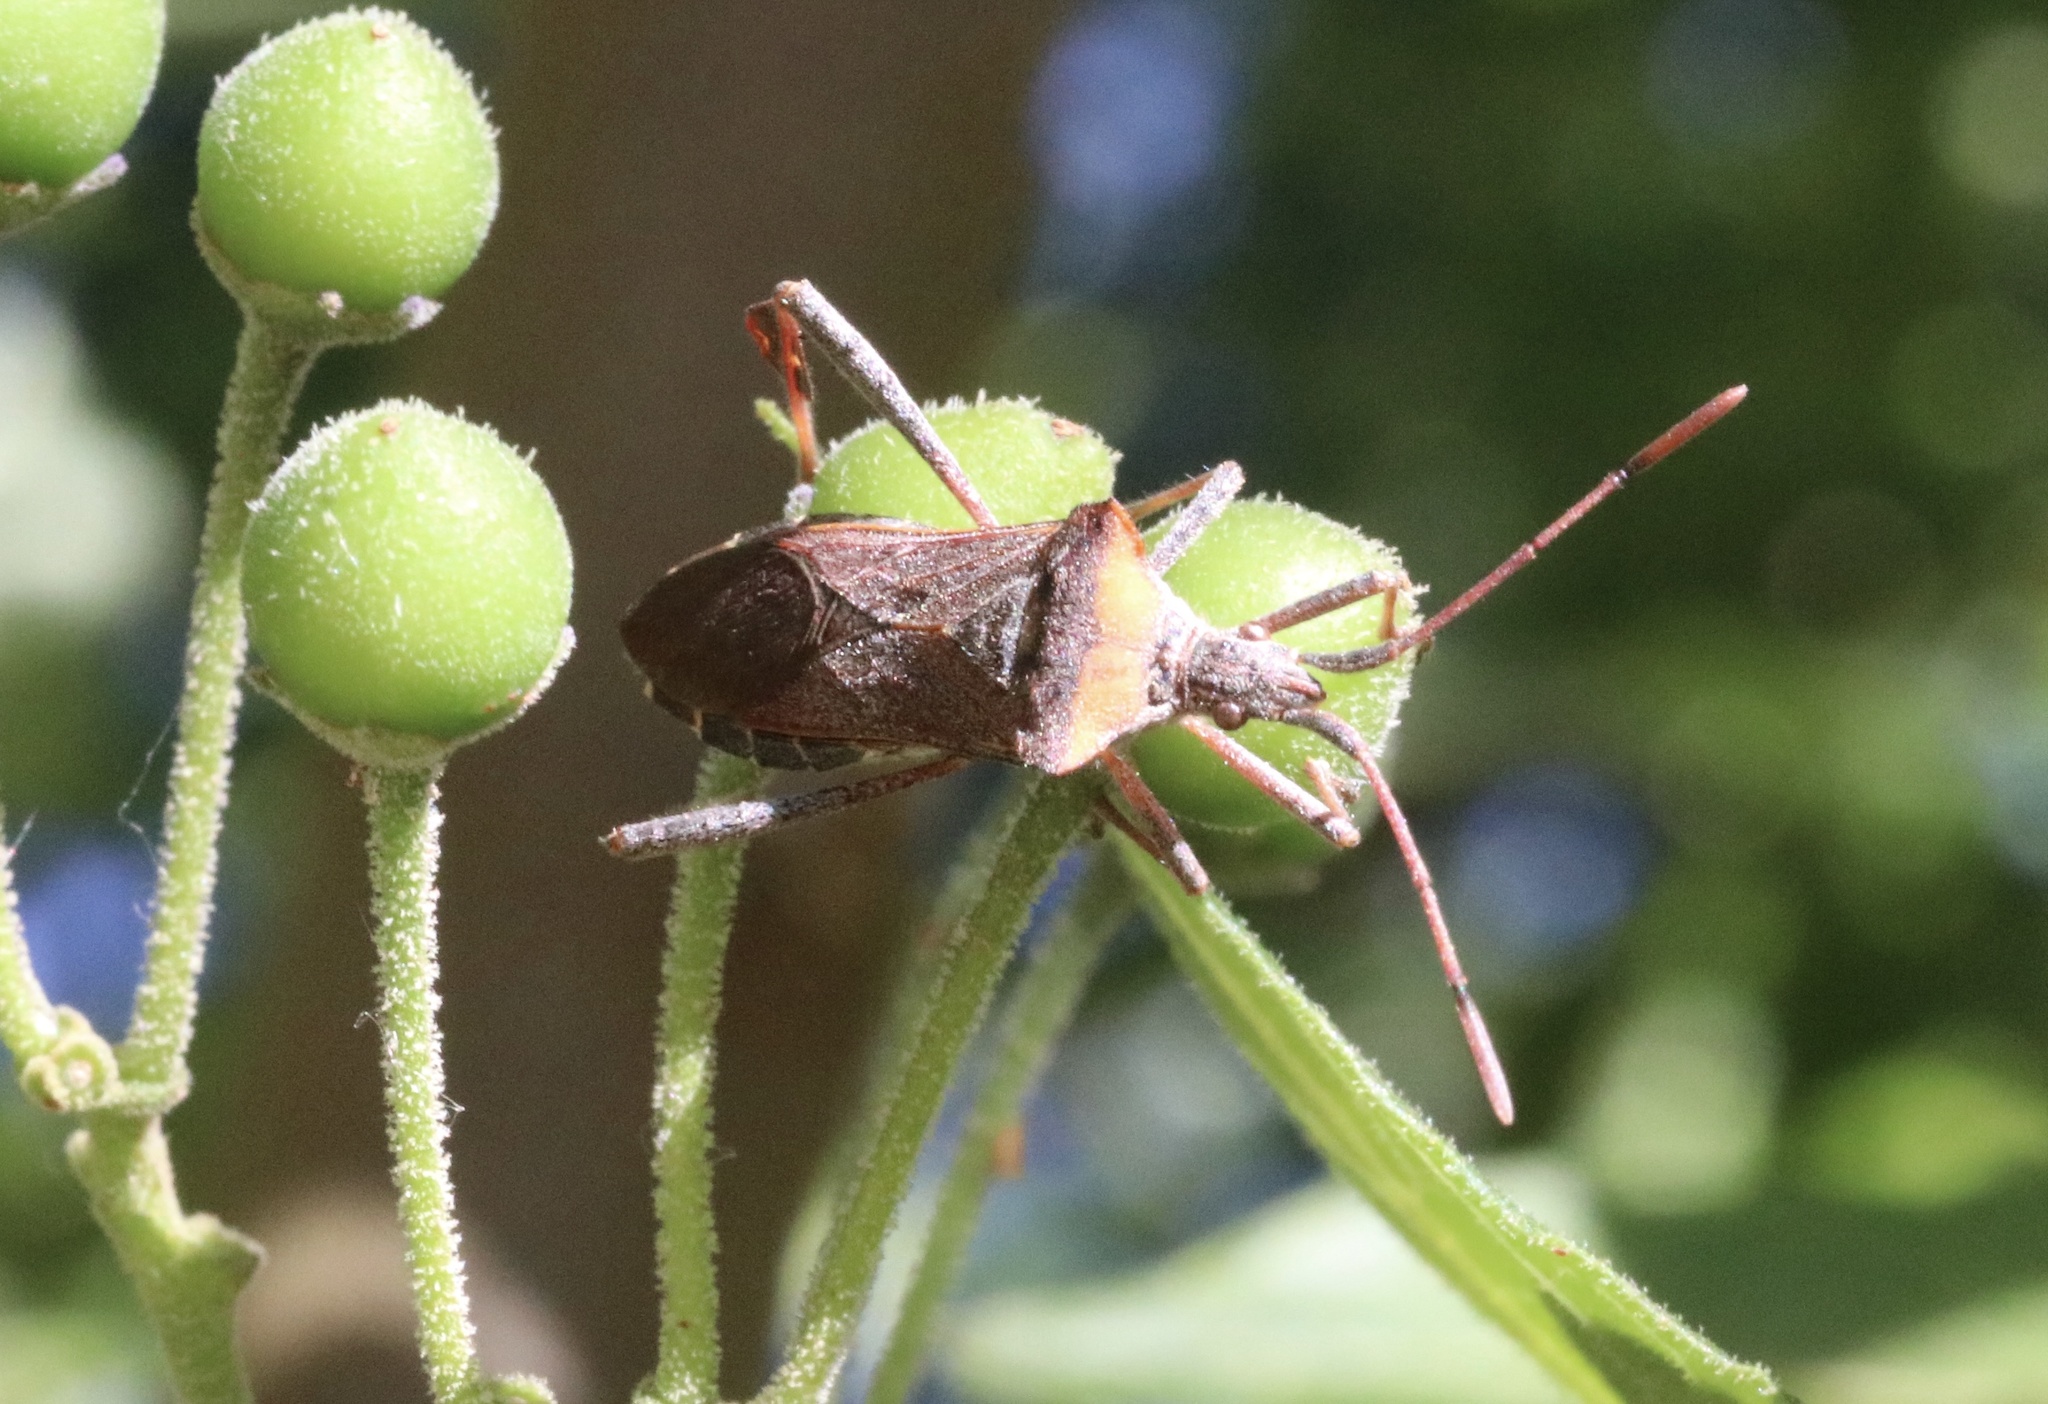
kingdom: Animalia
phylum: Arthropoda
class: Insecta
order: Hemiptera
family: Coreidae
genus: Leptoglossus
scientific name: Leptoglossus chilensis
